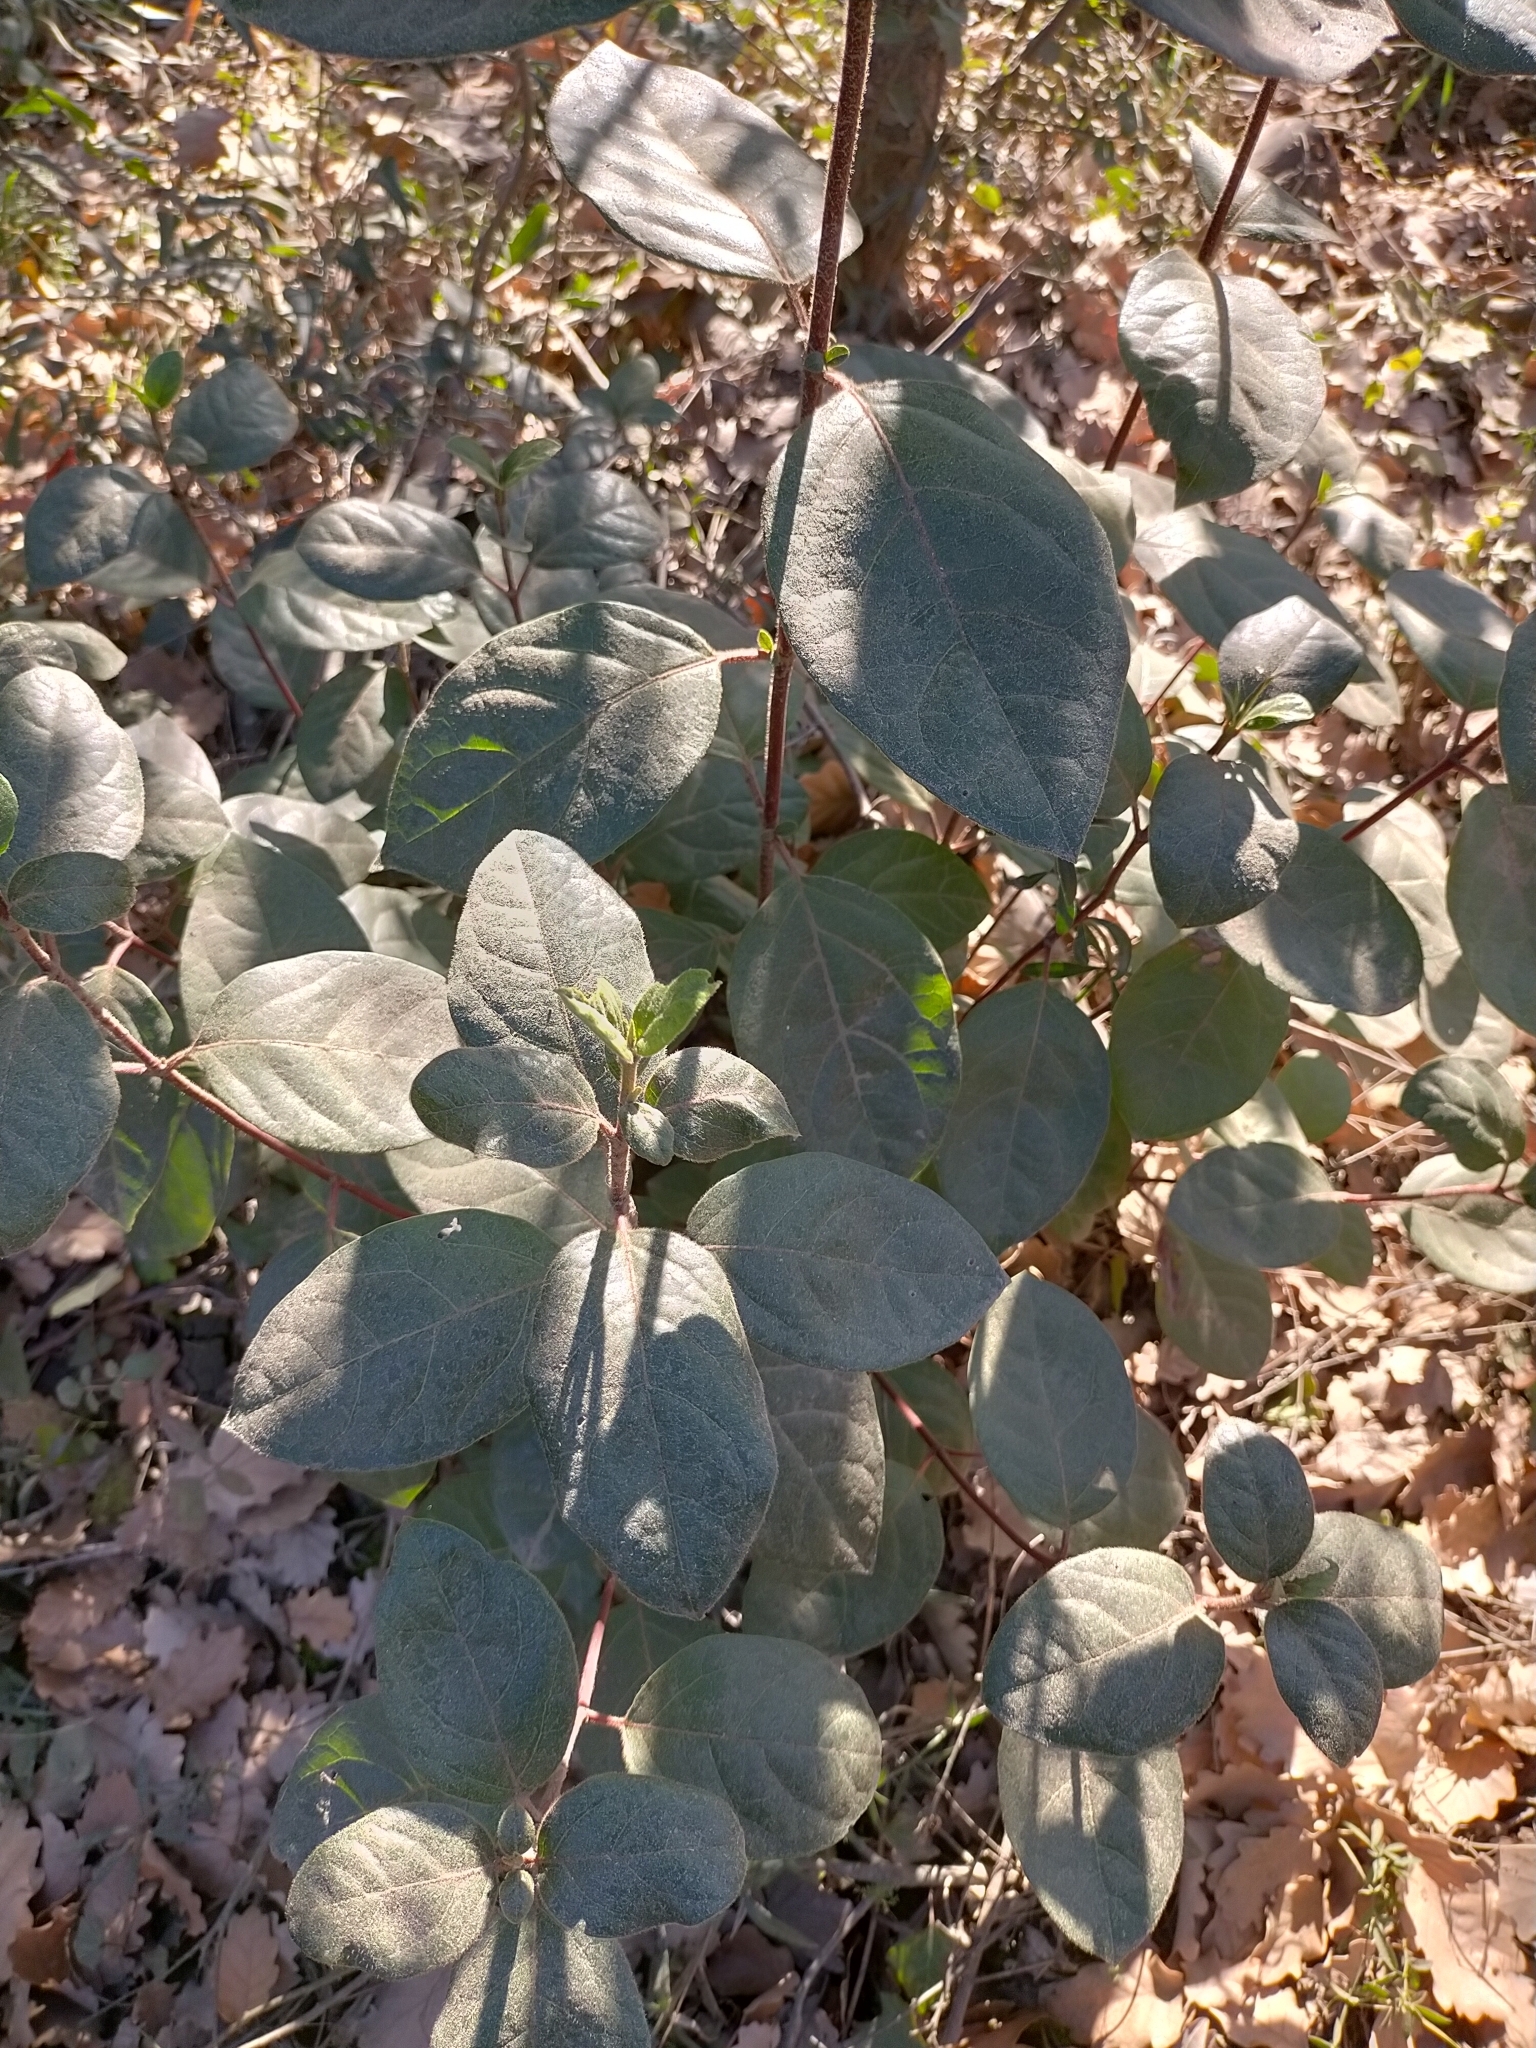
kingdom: Plantae
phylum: Tracheophyta
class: Magnoliopsida
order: Dipsacales
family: Viburnaceae
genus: Viburnum
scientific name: Viburnum tinus
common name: Laurustinus
